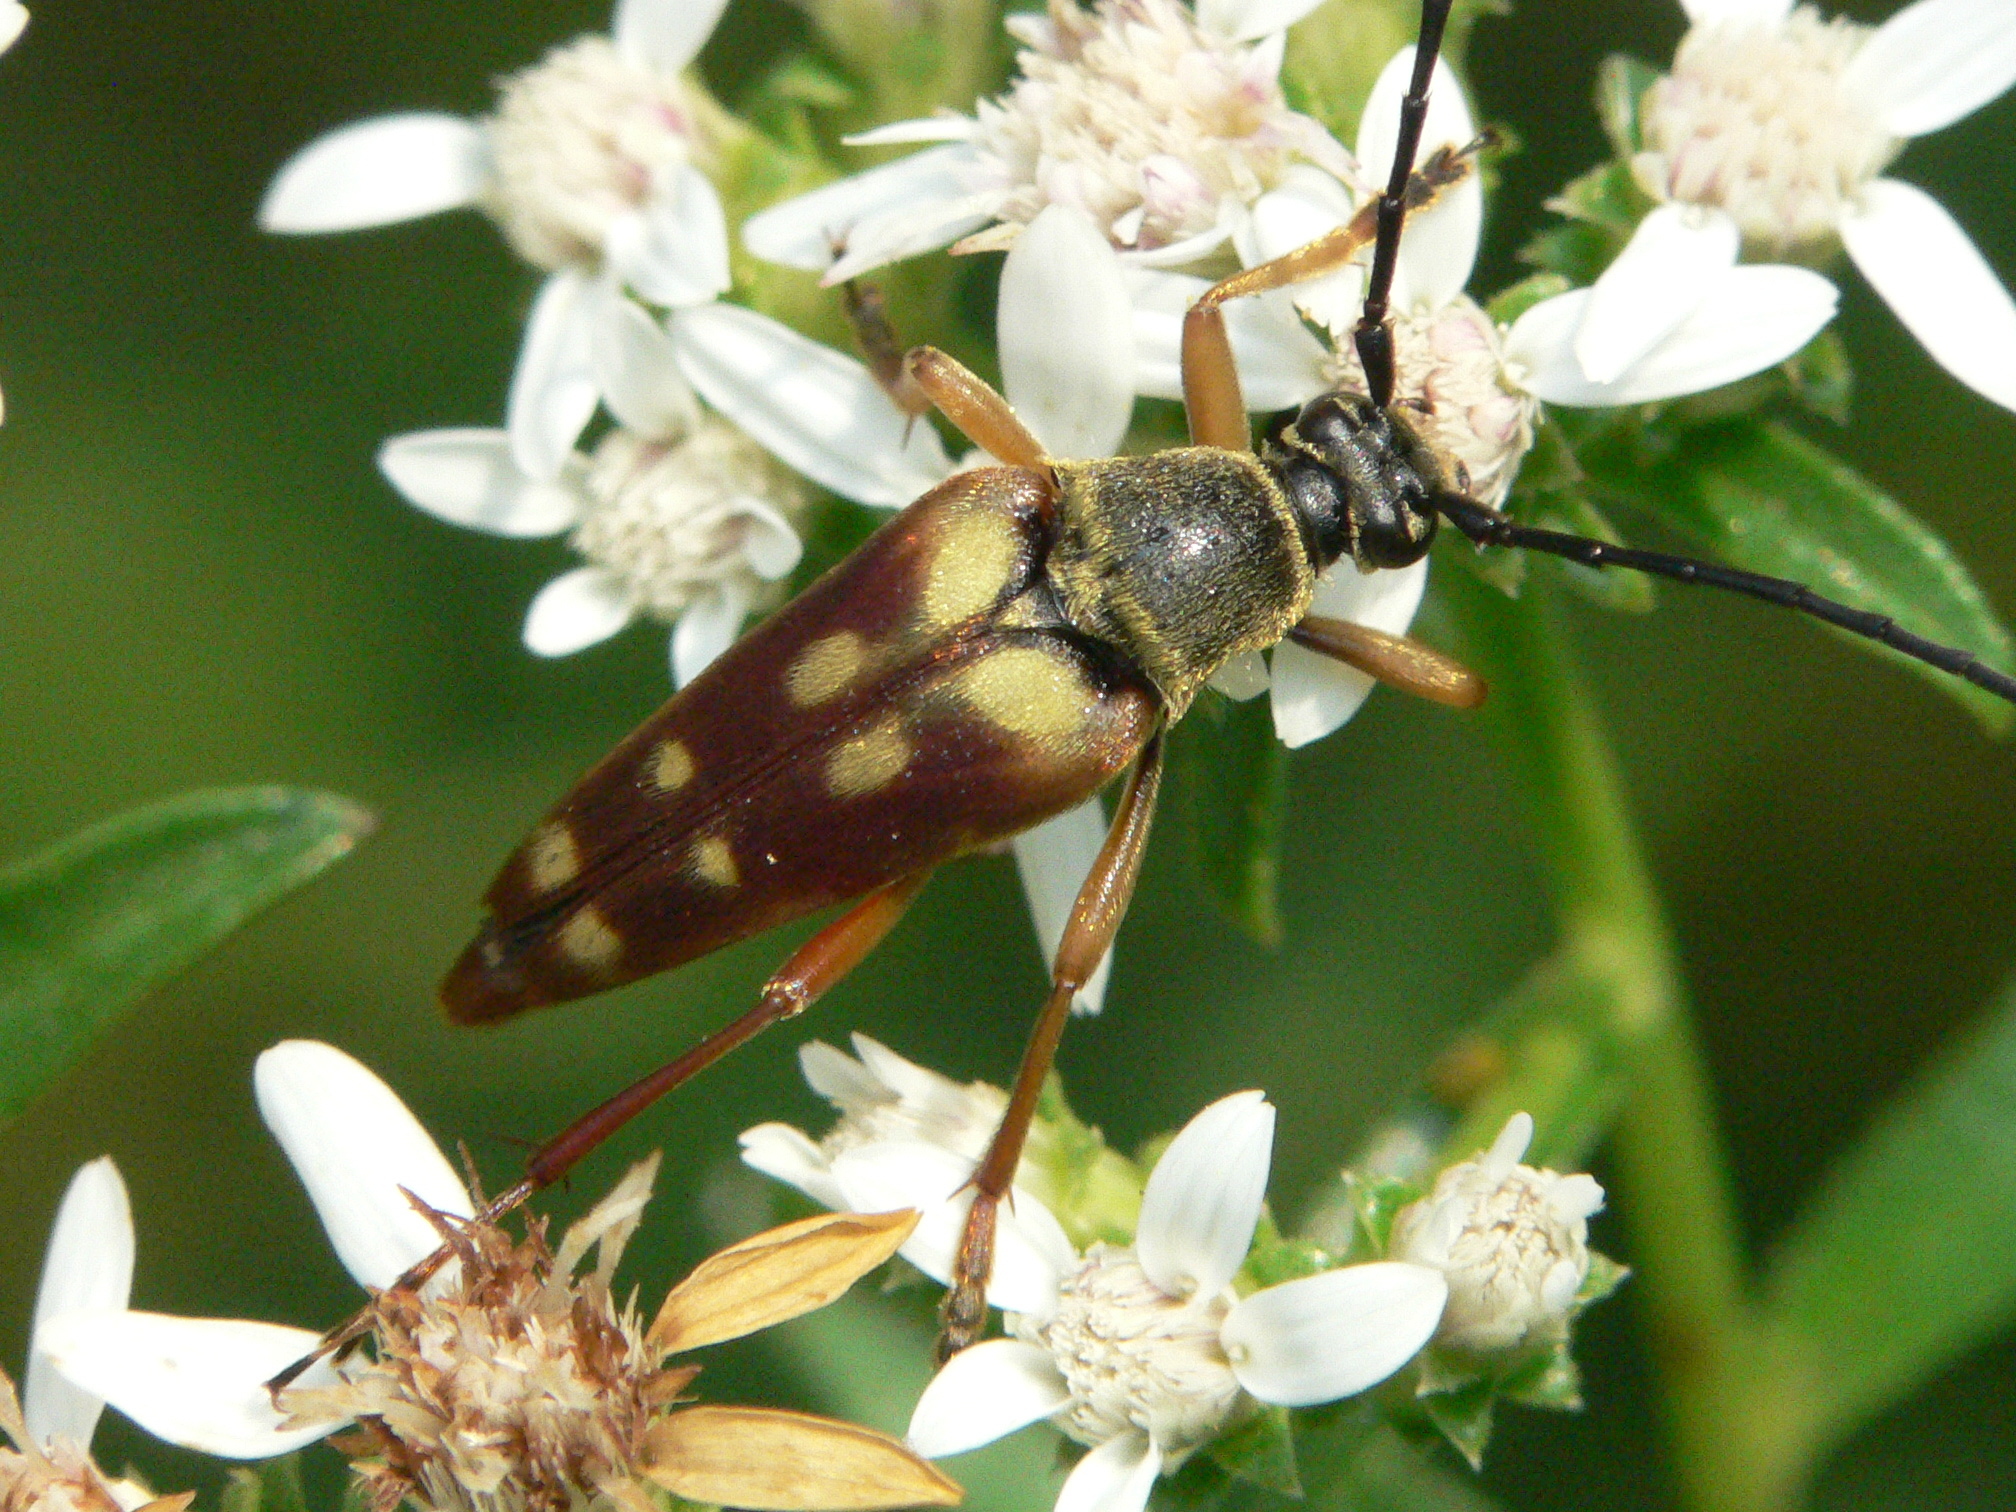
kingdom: Animalia
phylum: Arthropoda
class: Insecta
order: Coleoptera
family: Cerambycidae
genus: Typocerus
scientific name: Typocerus velutinus
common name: Banded longhorn beetle
